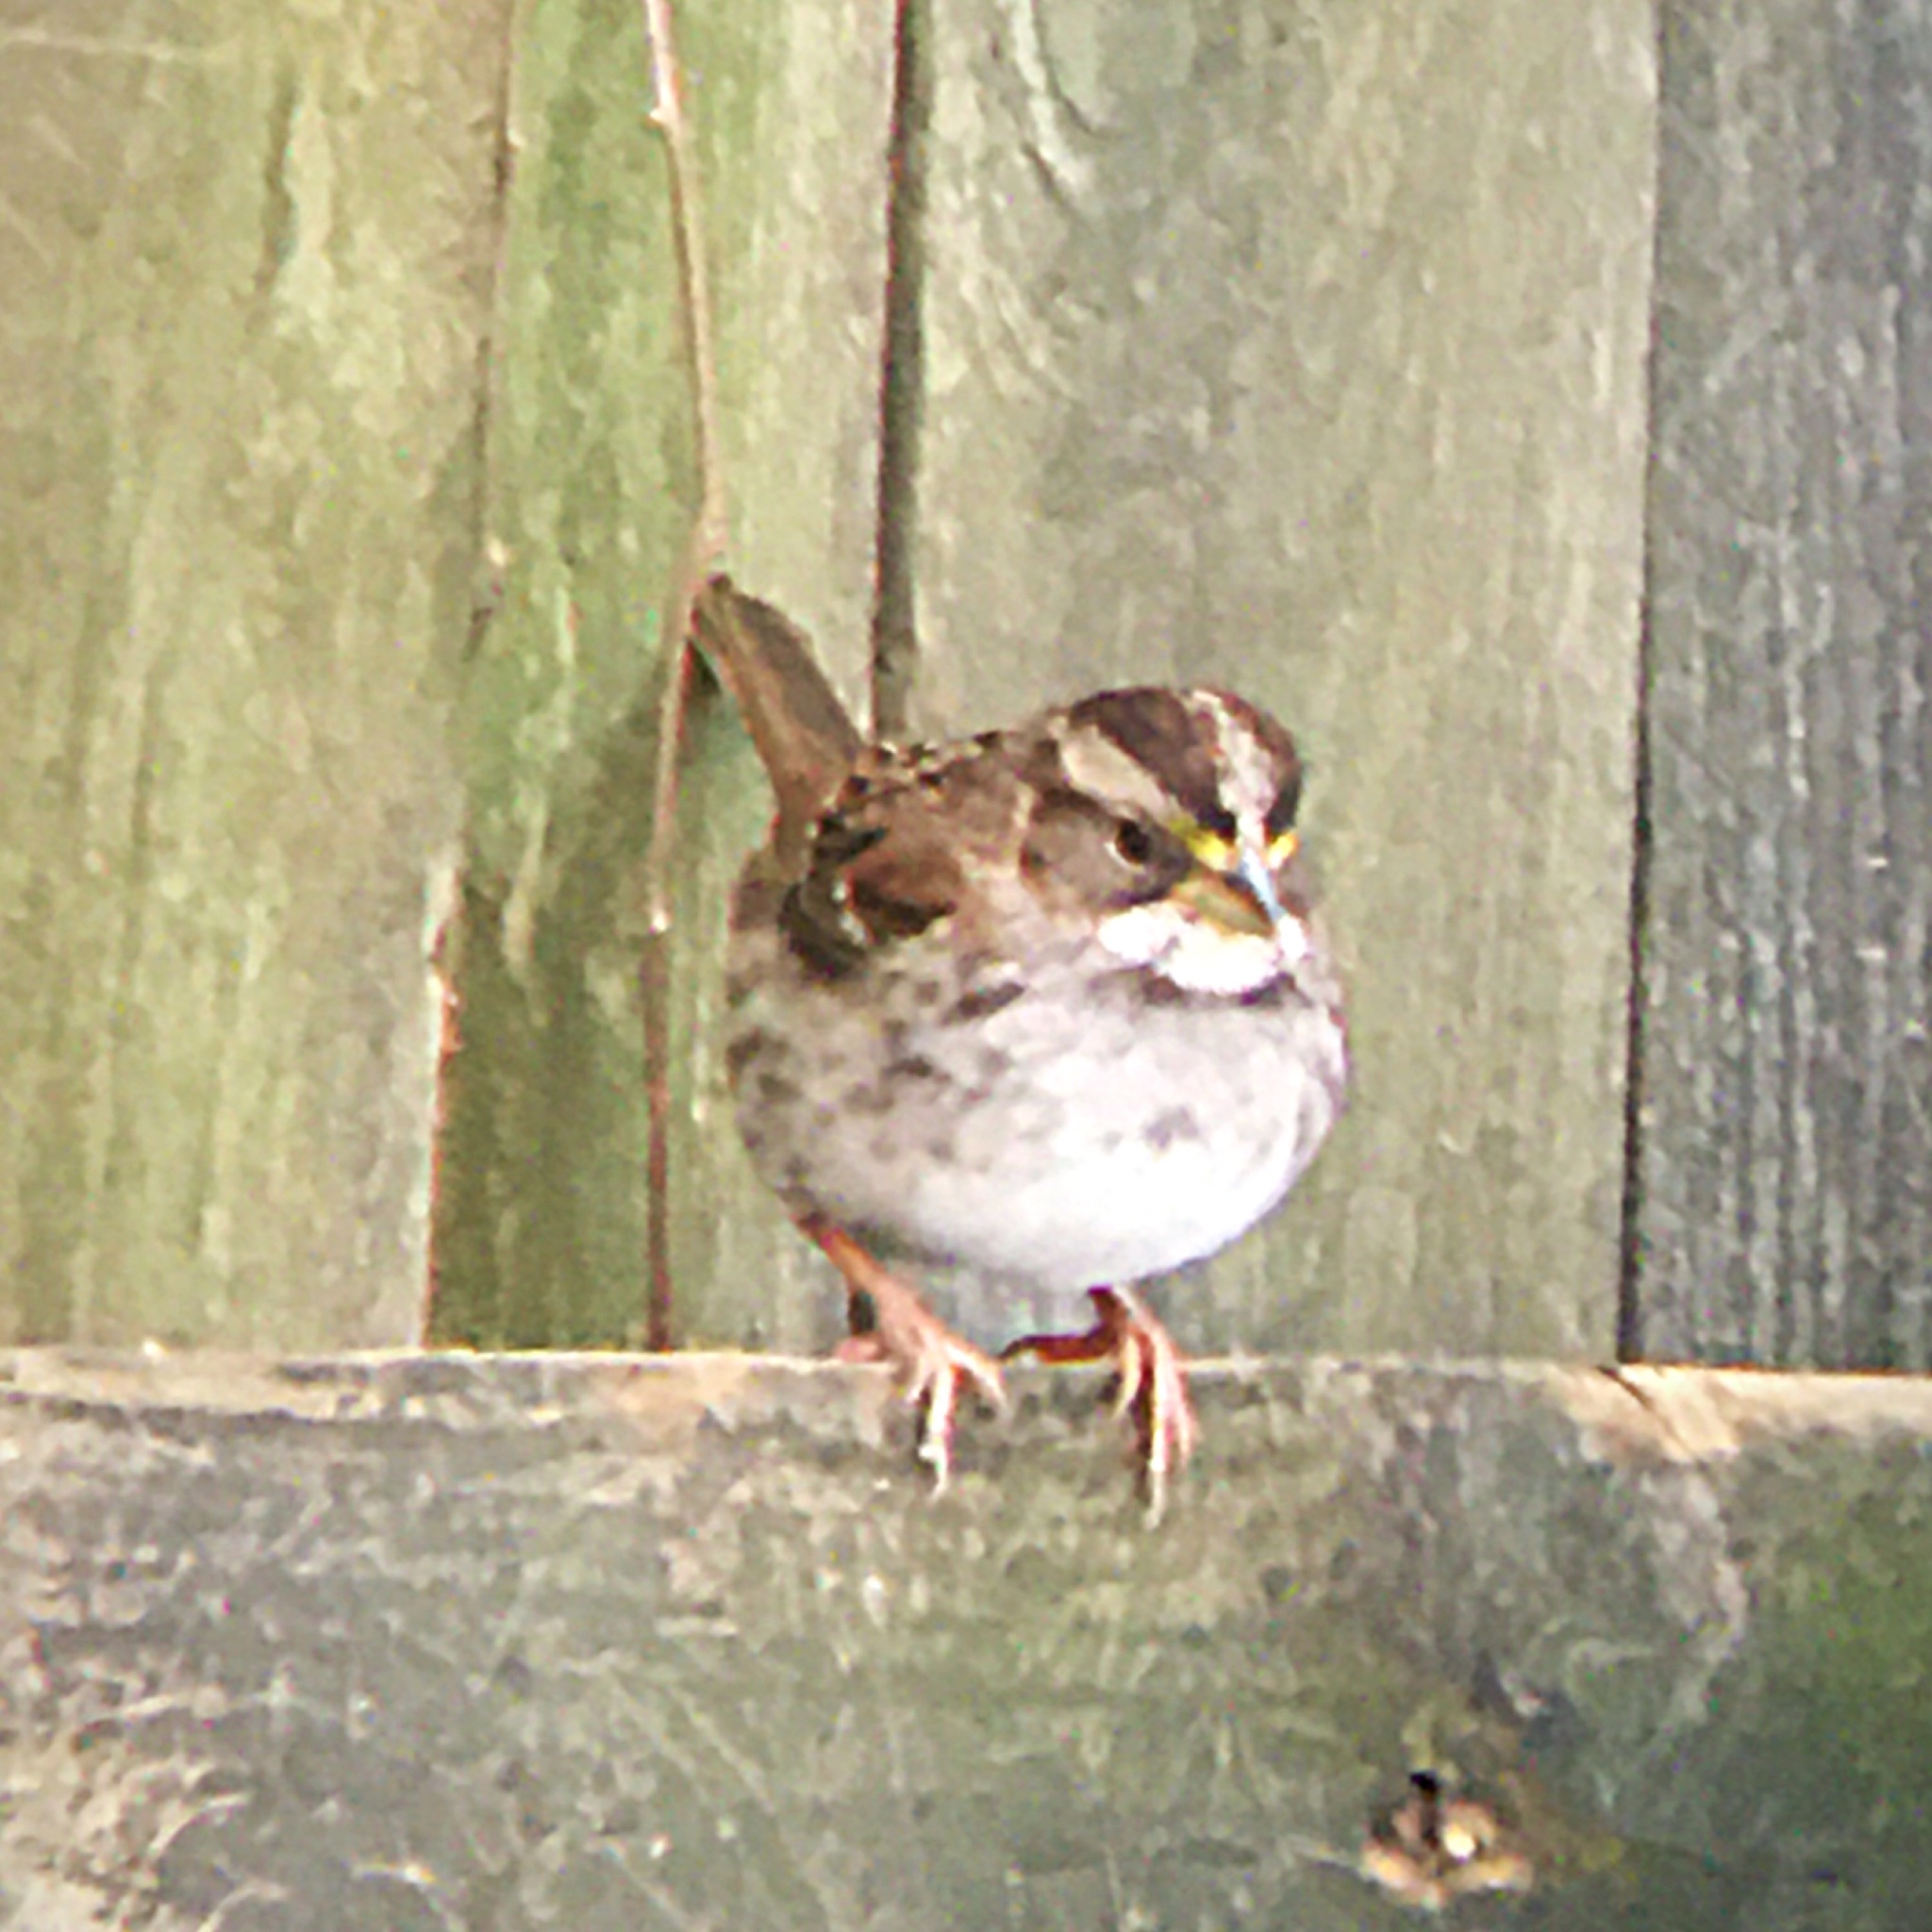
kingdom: Animalia
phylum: Chordata
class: Aves
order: Passeriformes
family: Passerellidae
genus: Zonotrichia
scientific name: Zonotrichia albicollis
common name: White-throated sparrow
